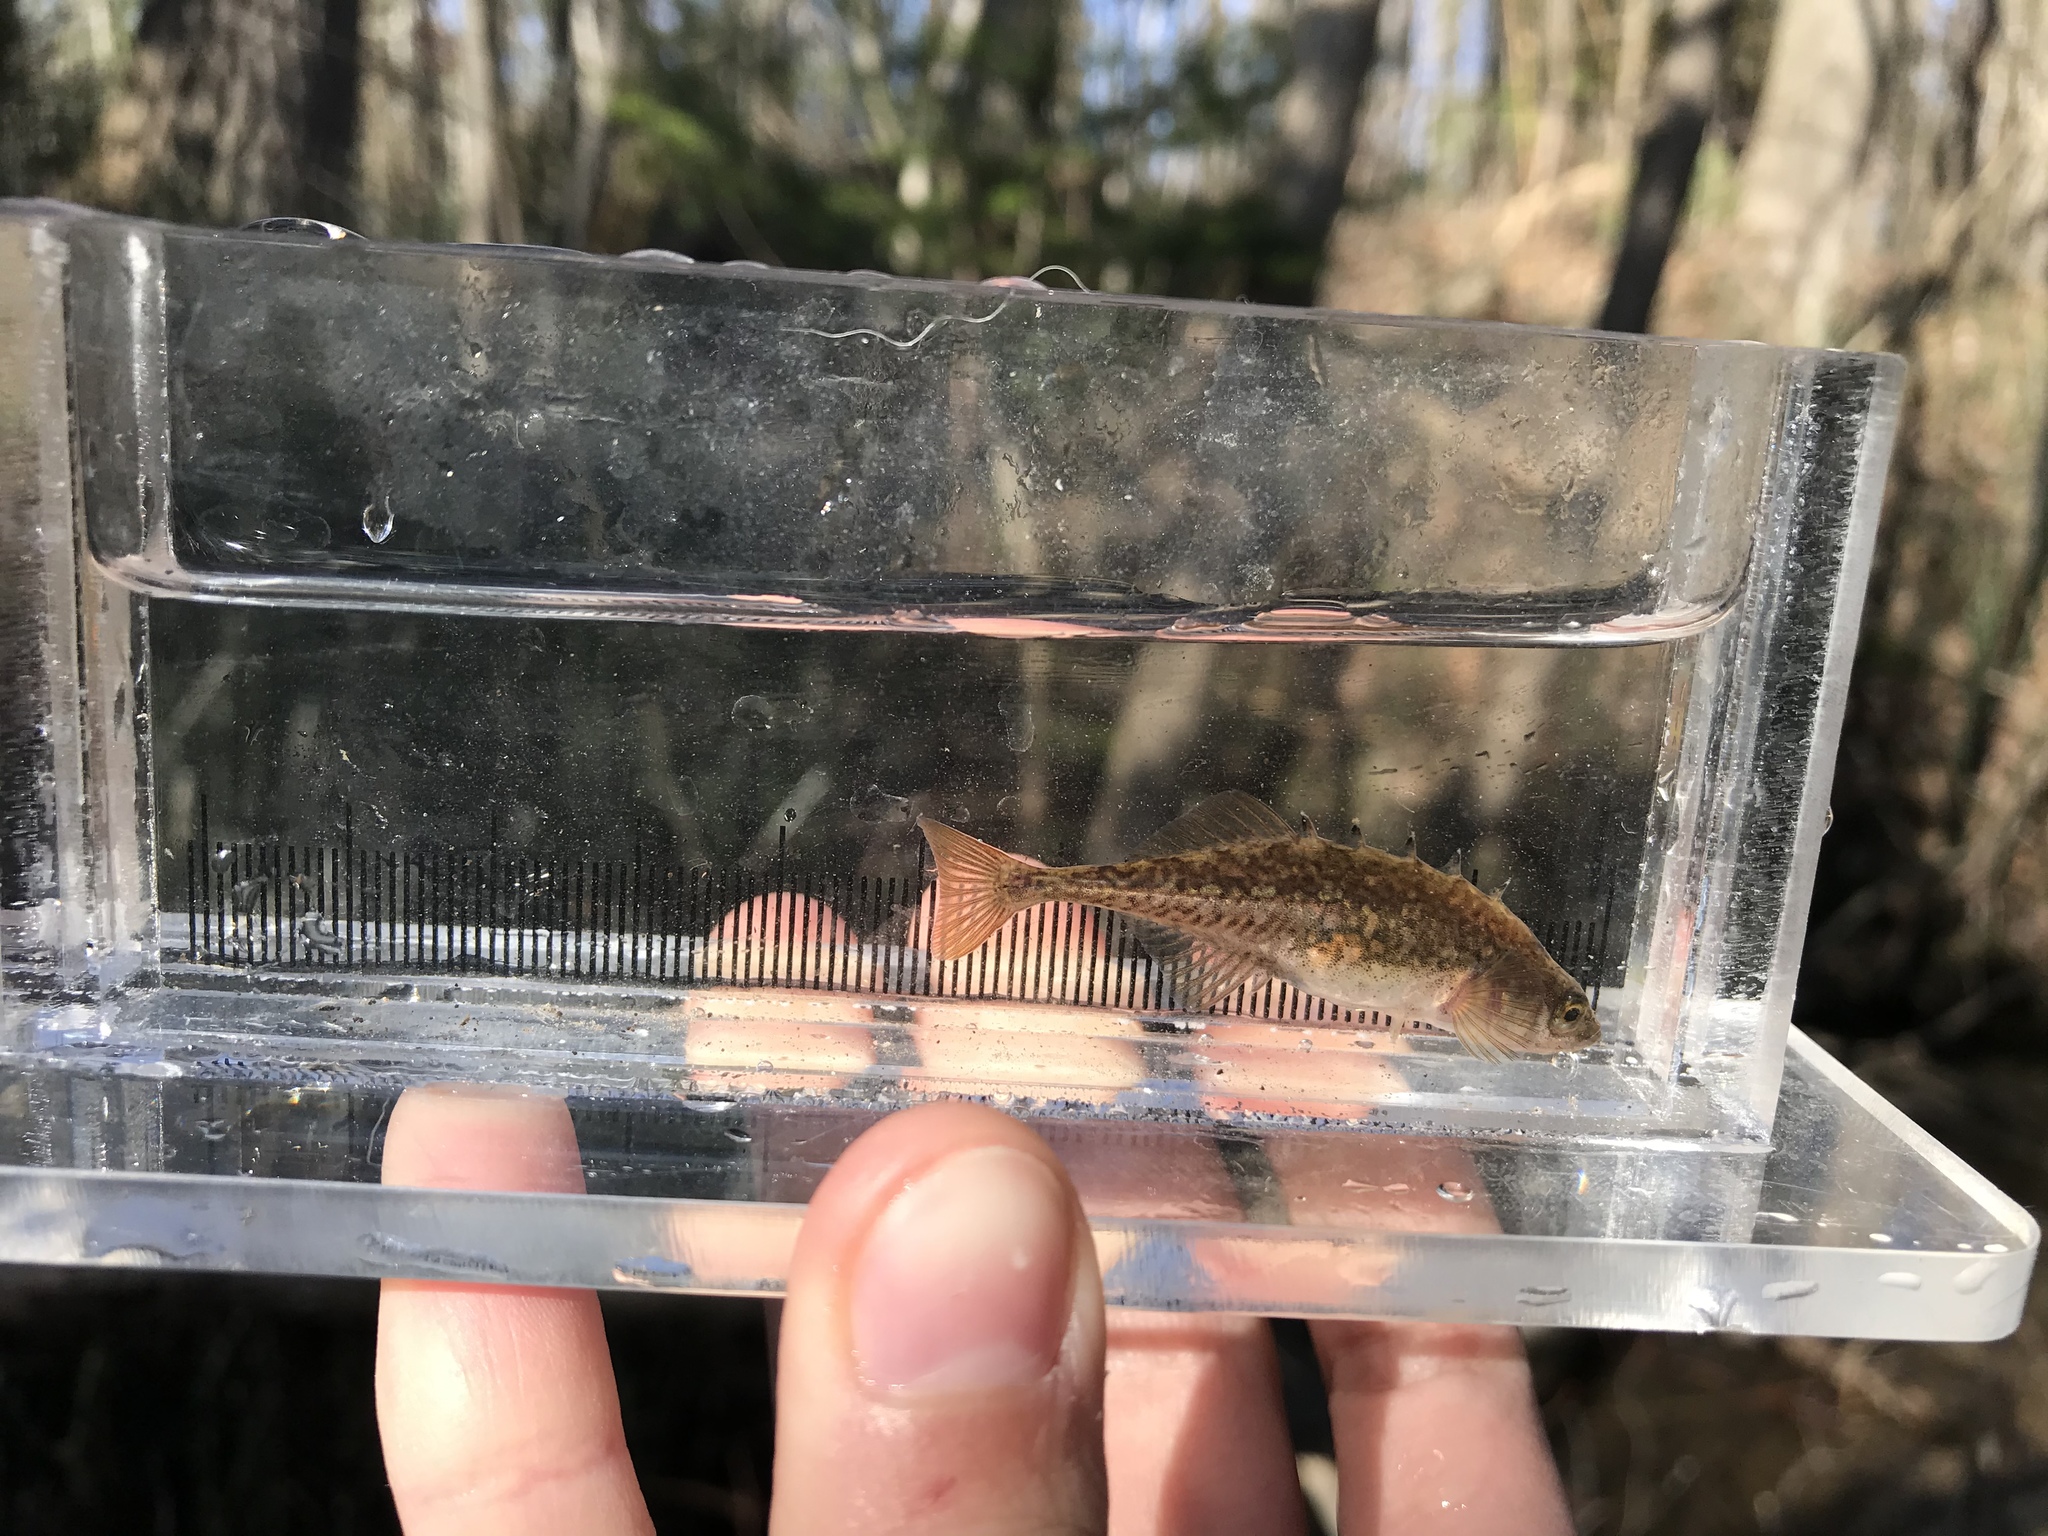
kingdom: Animalia
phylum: Chordata
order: Gasterosteiformes
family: Gasterosteidae
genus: Culaea
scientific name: Culaea inconstans
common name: Brook stickleback
